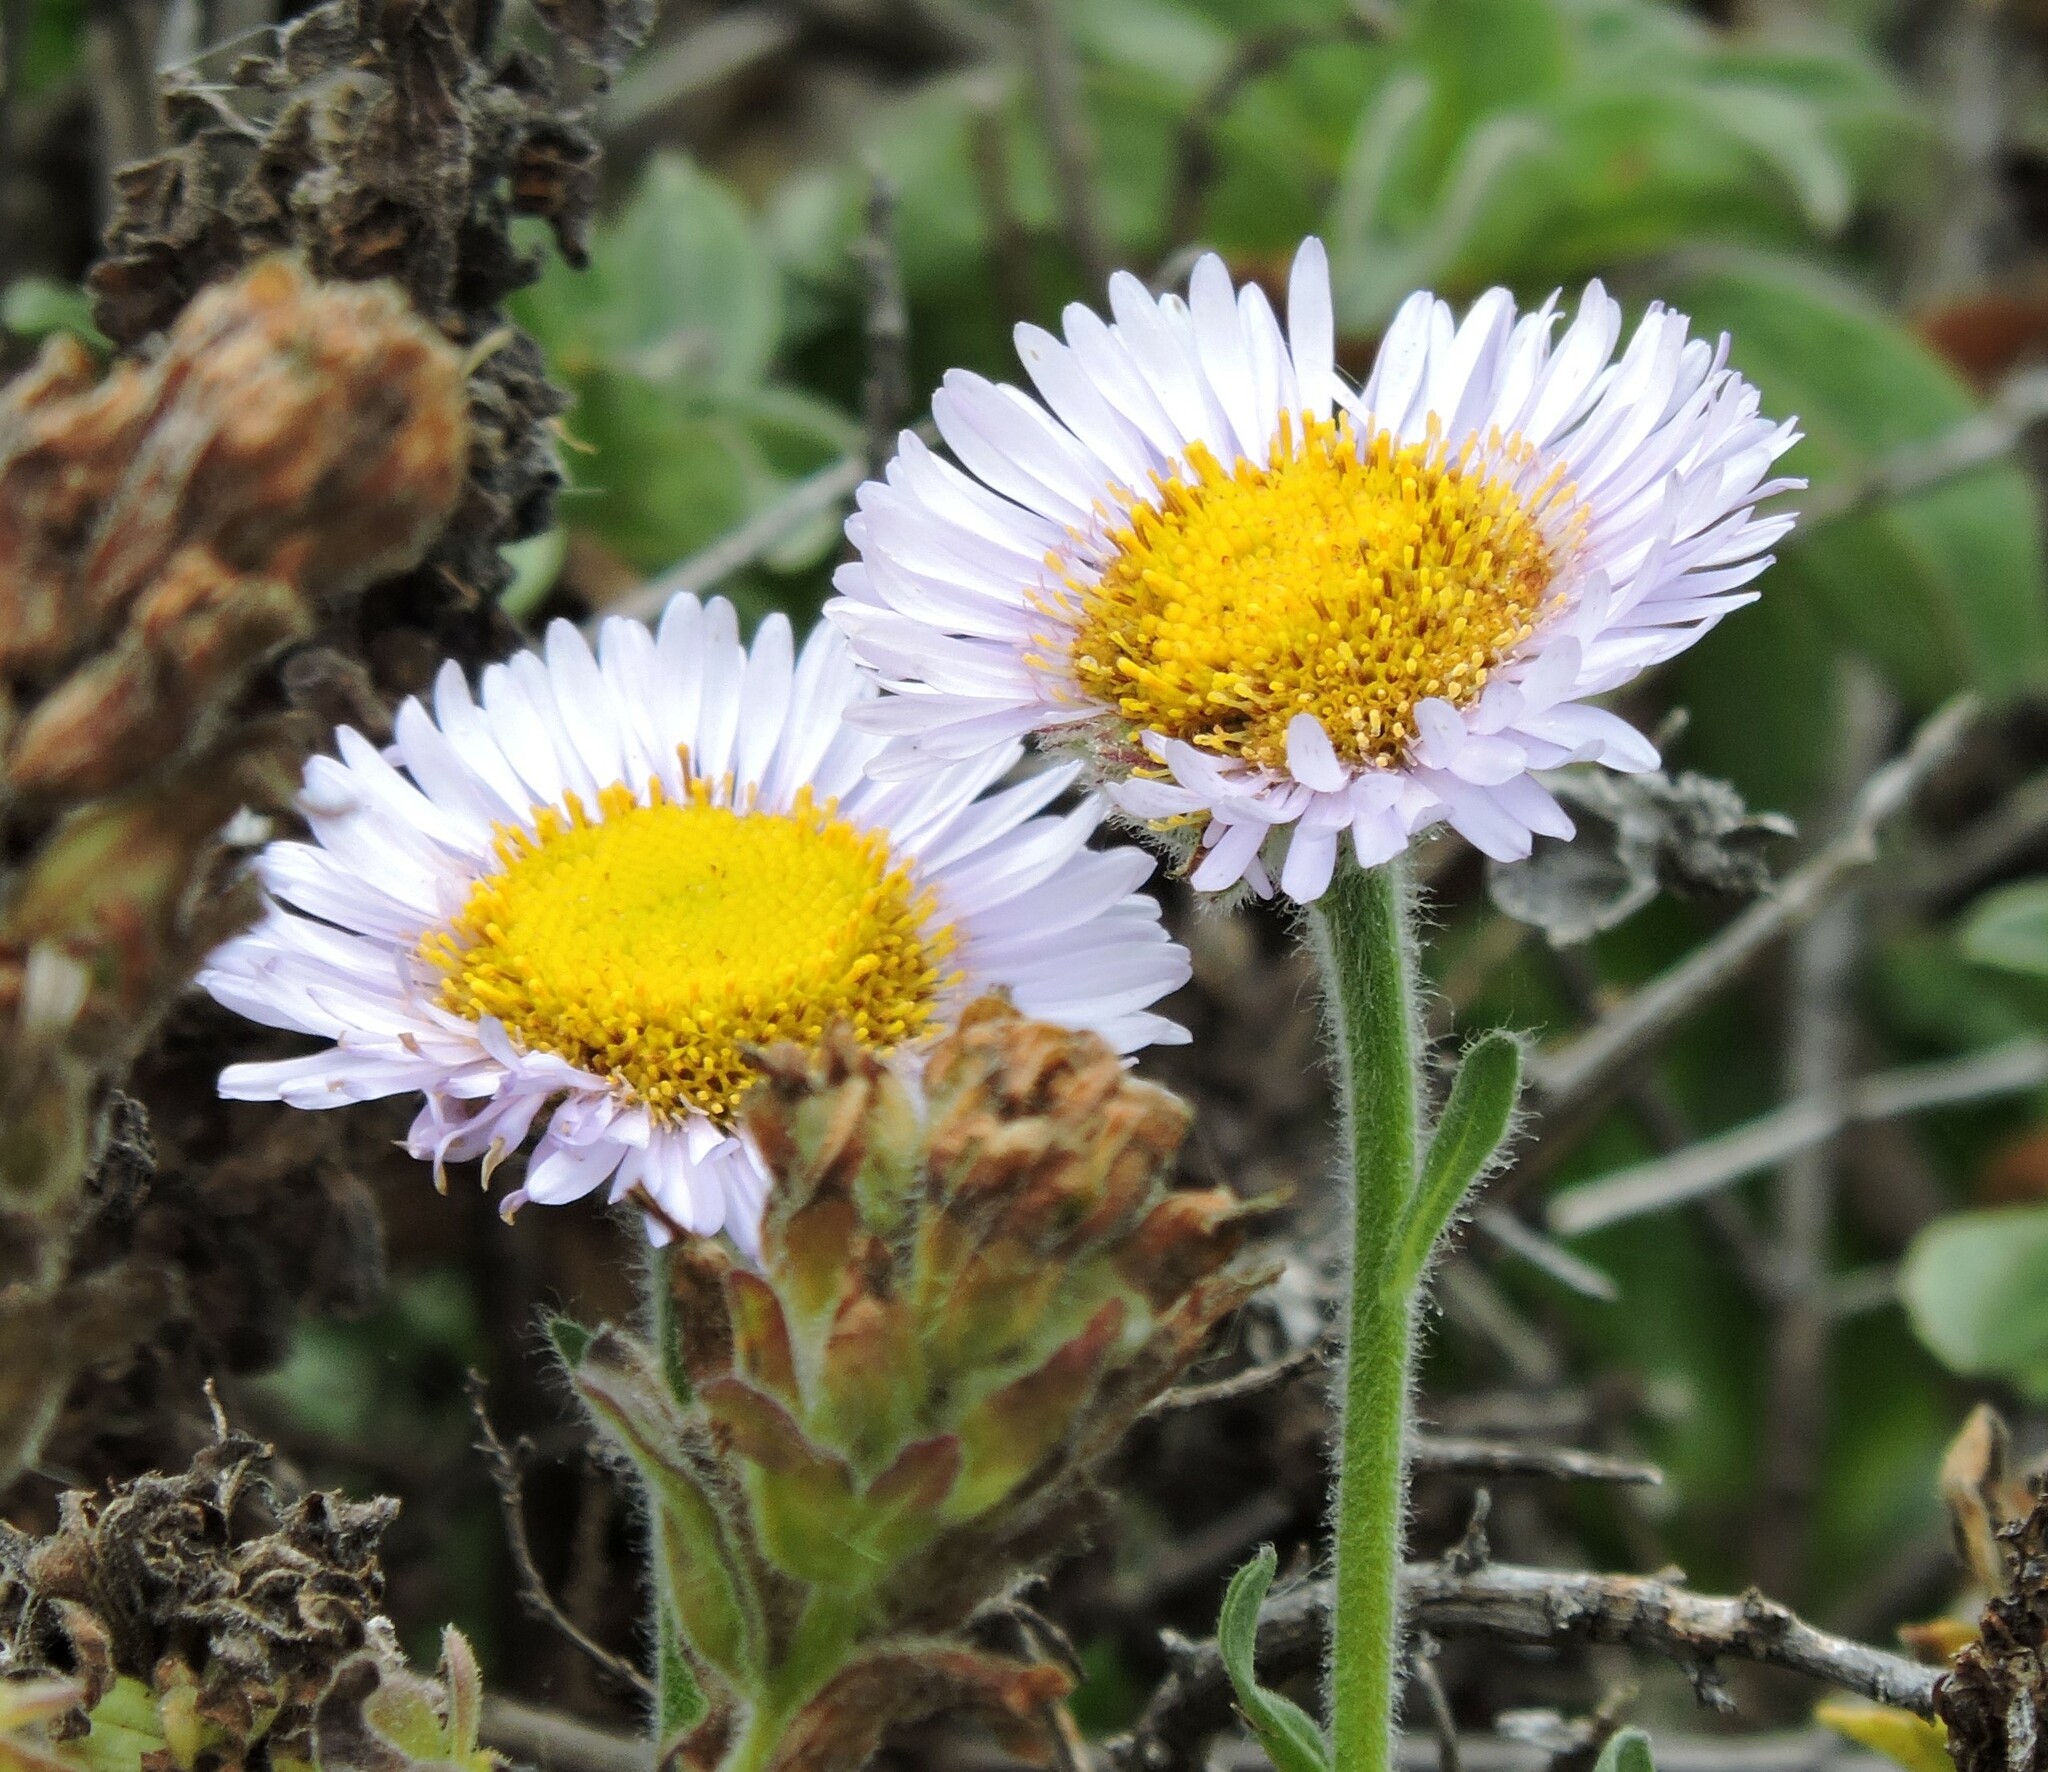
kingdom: Plantae
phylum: Tracheophyta
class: Magnoliopsida
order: Asterales
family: Asteraceae
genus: Erigeron
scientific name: Erigeron glaucus
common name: Seaside daisy
